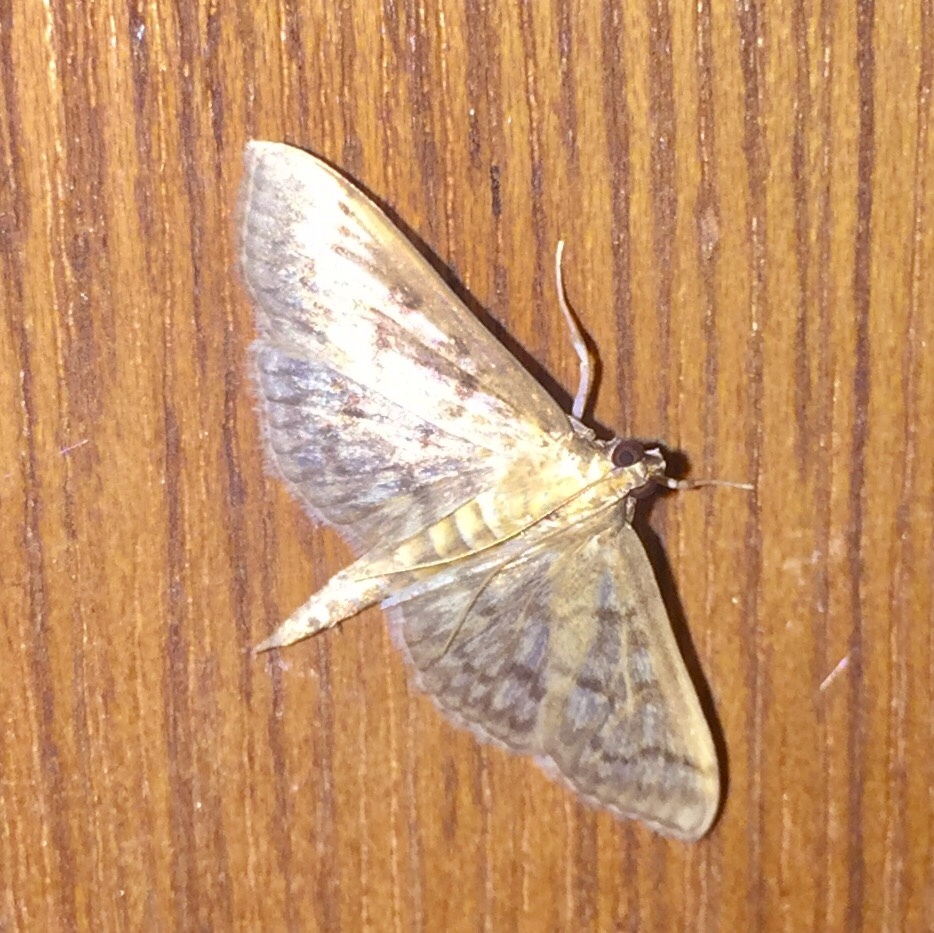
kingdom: Animalia
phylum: Arthropoda
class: Insecta
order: Lepidoptera
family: Crambidae
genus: Herpetogramma
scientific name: Herpetogramma pertextalis
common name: Bold-feathered grass moth
